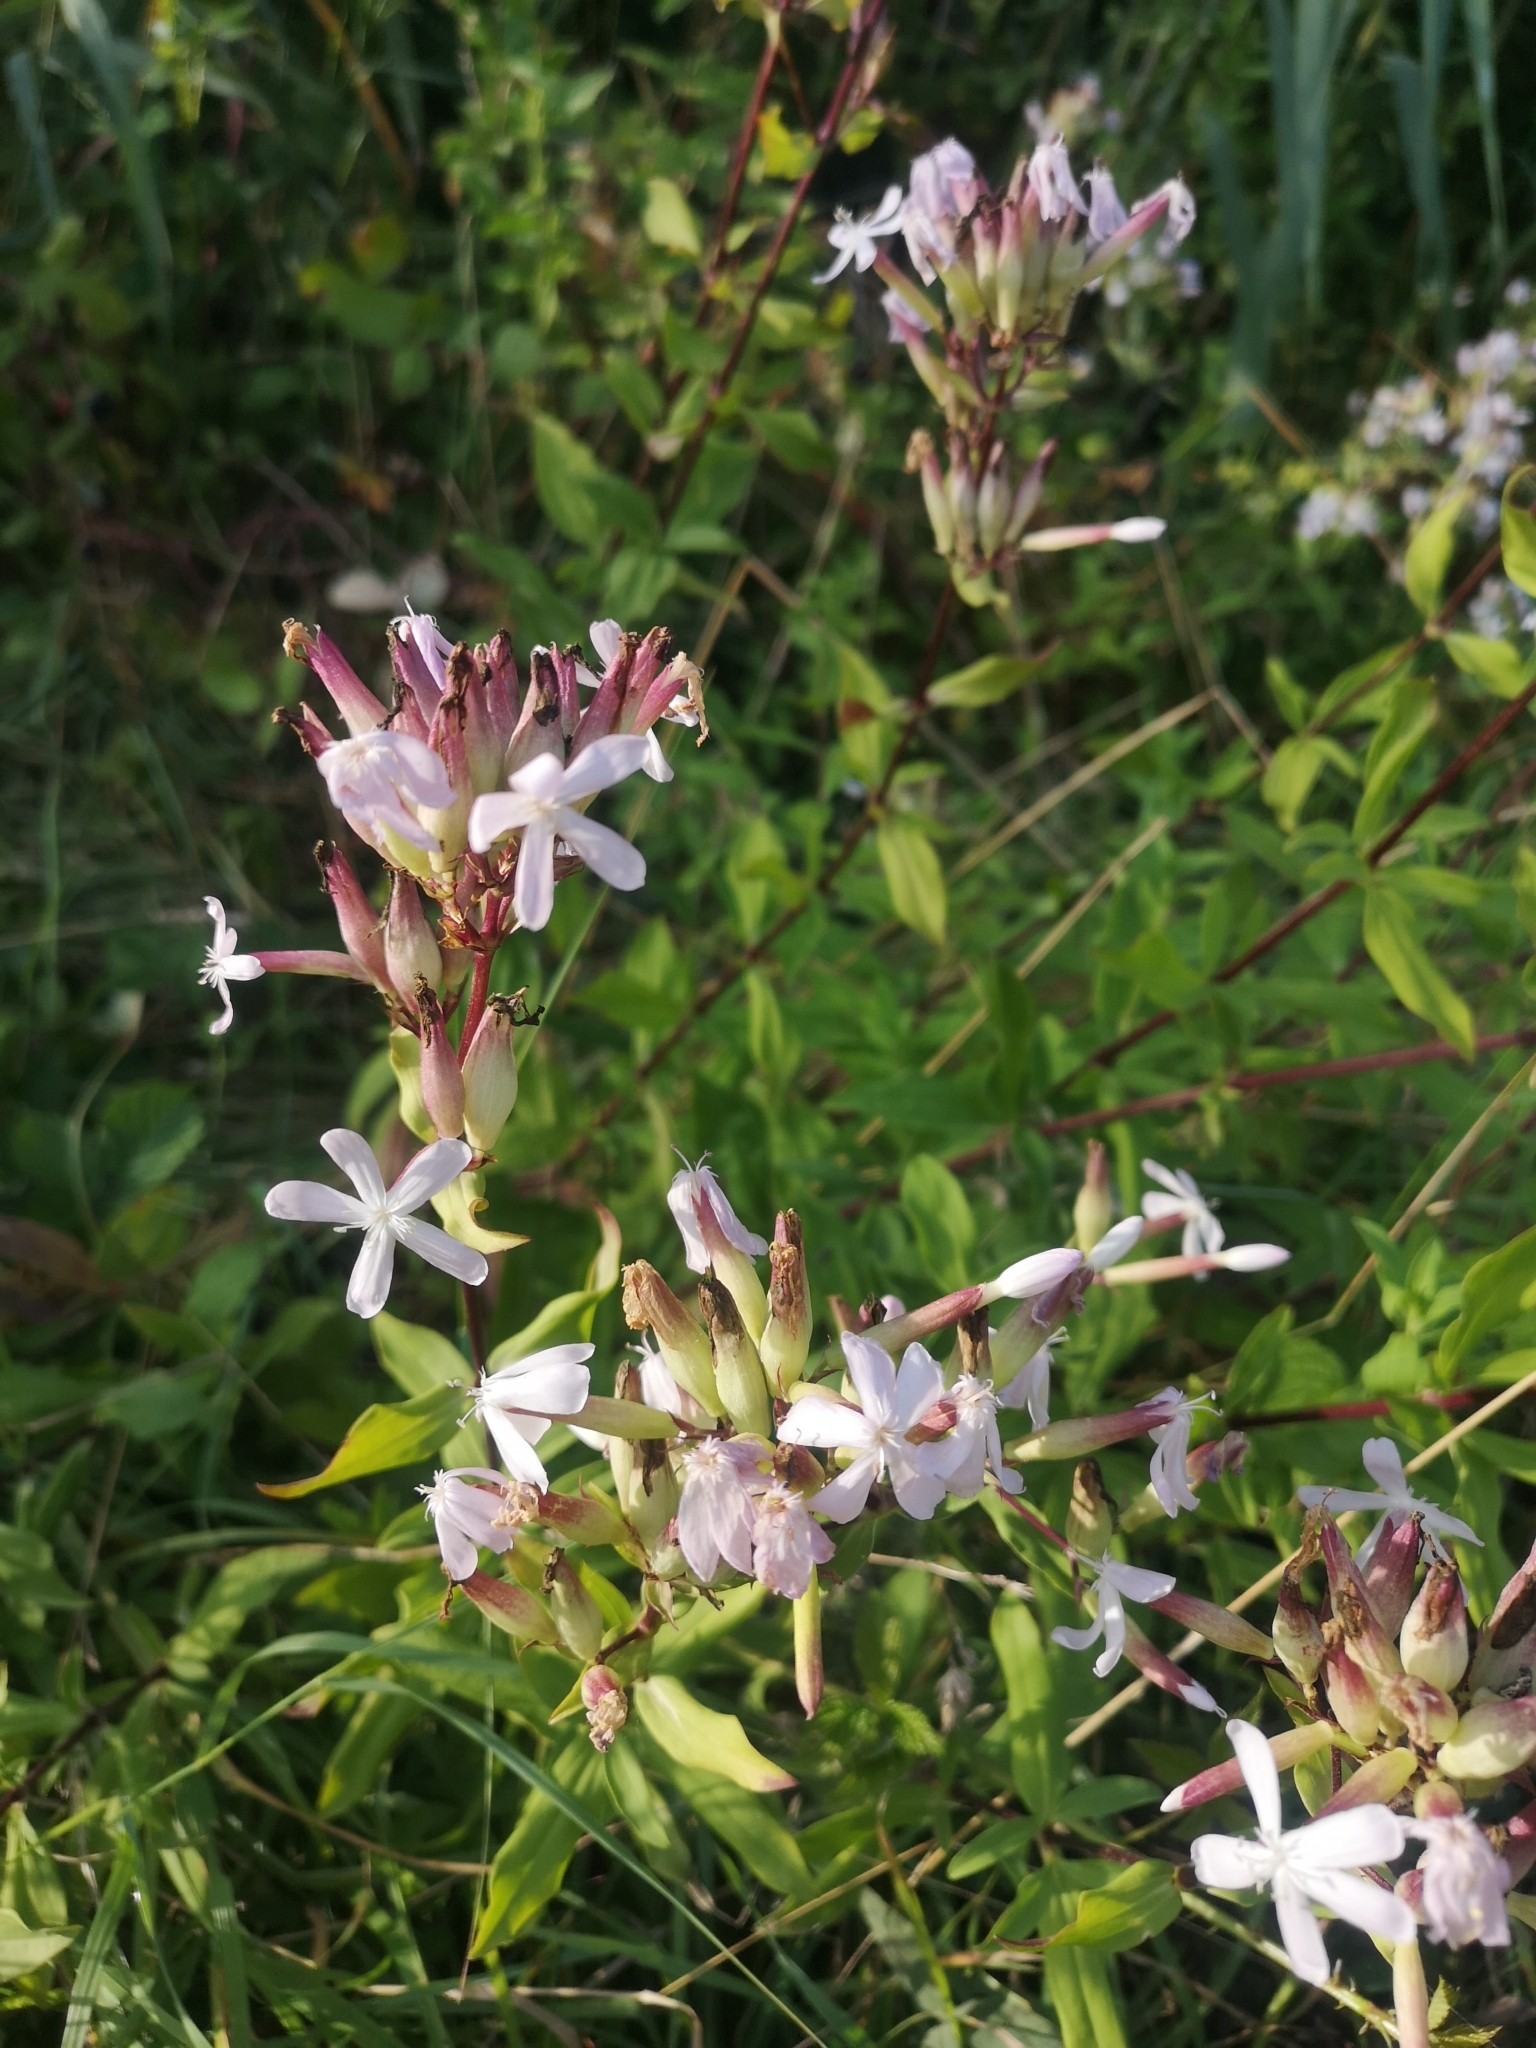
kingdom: Plantae
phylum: Tracheophyta
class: Magnoliopsida
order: Caryophyllales
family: Caryophyllaceae
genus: Saponaria
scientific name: Saponaria officinalis
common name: Soapwort
